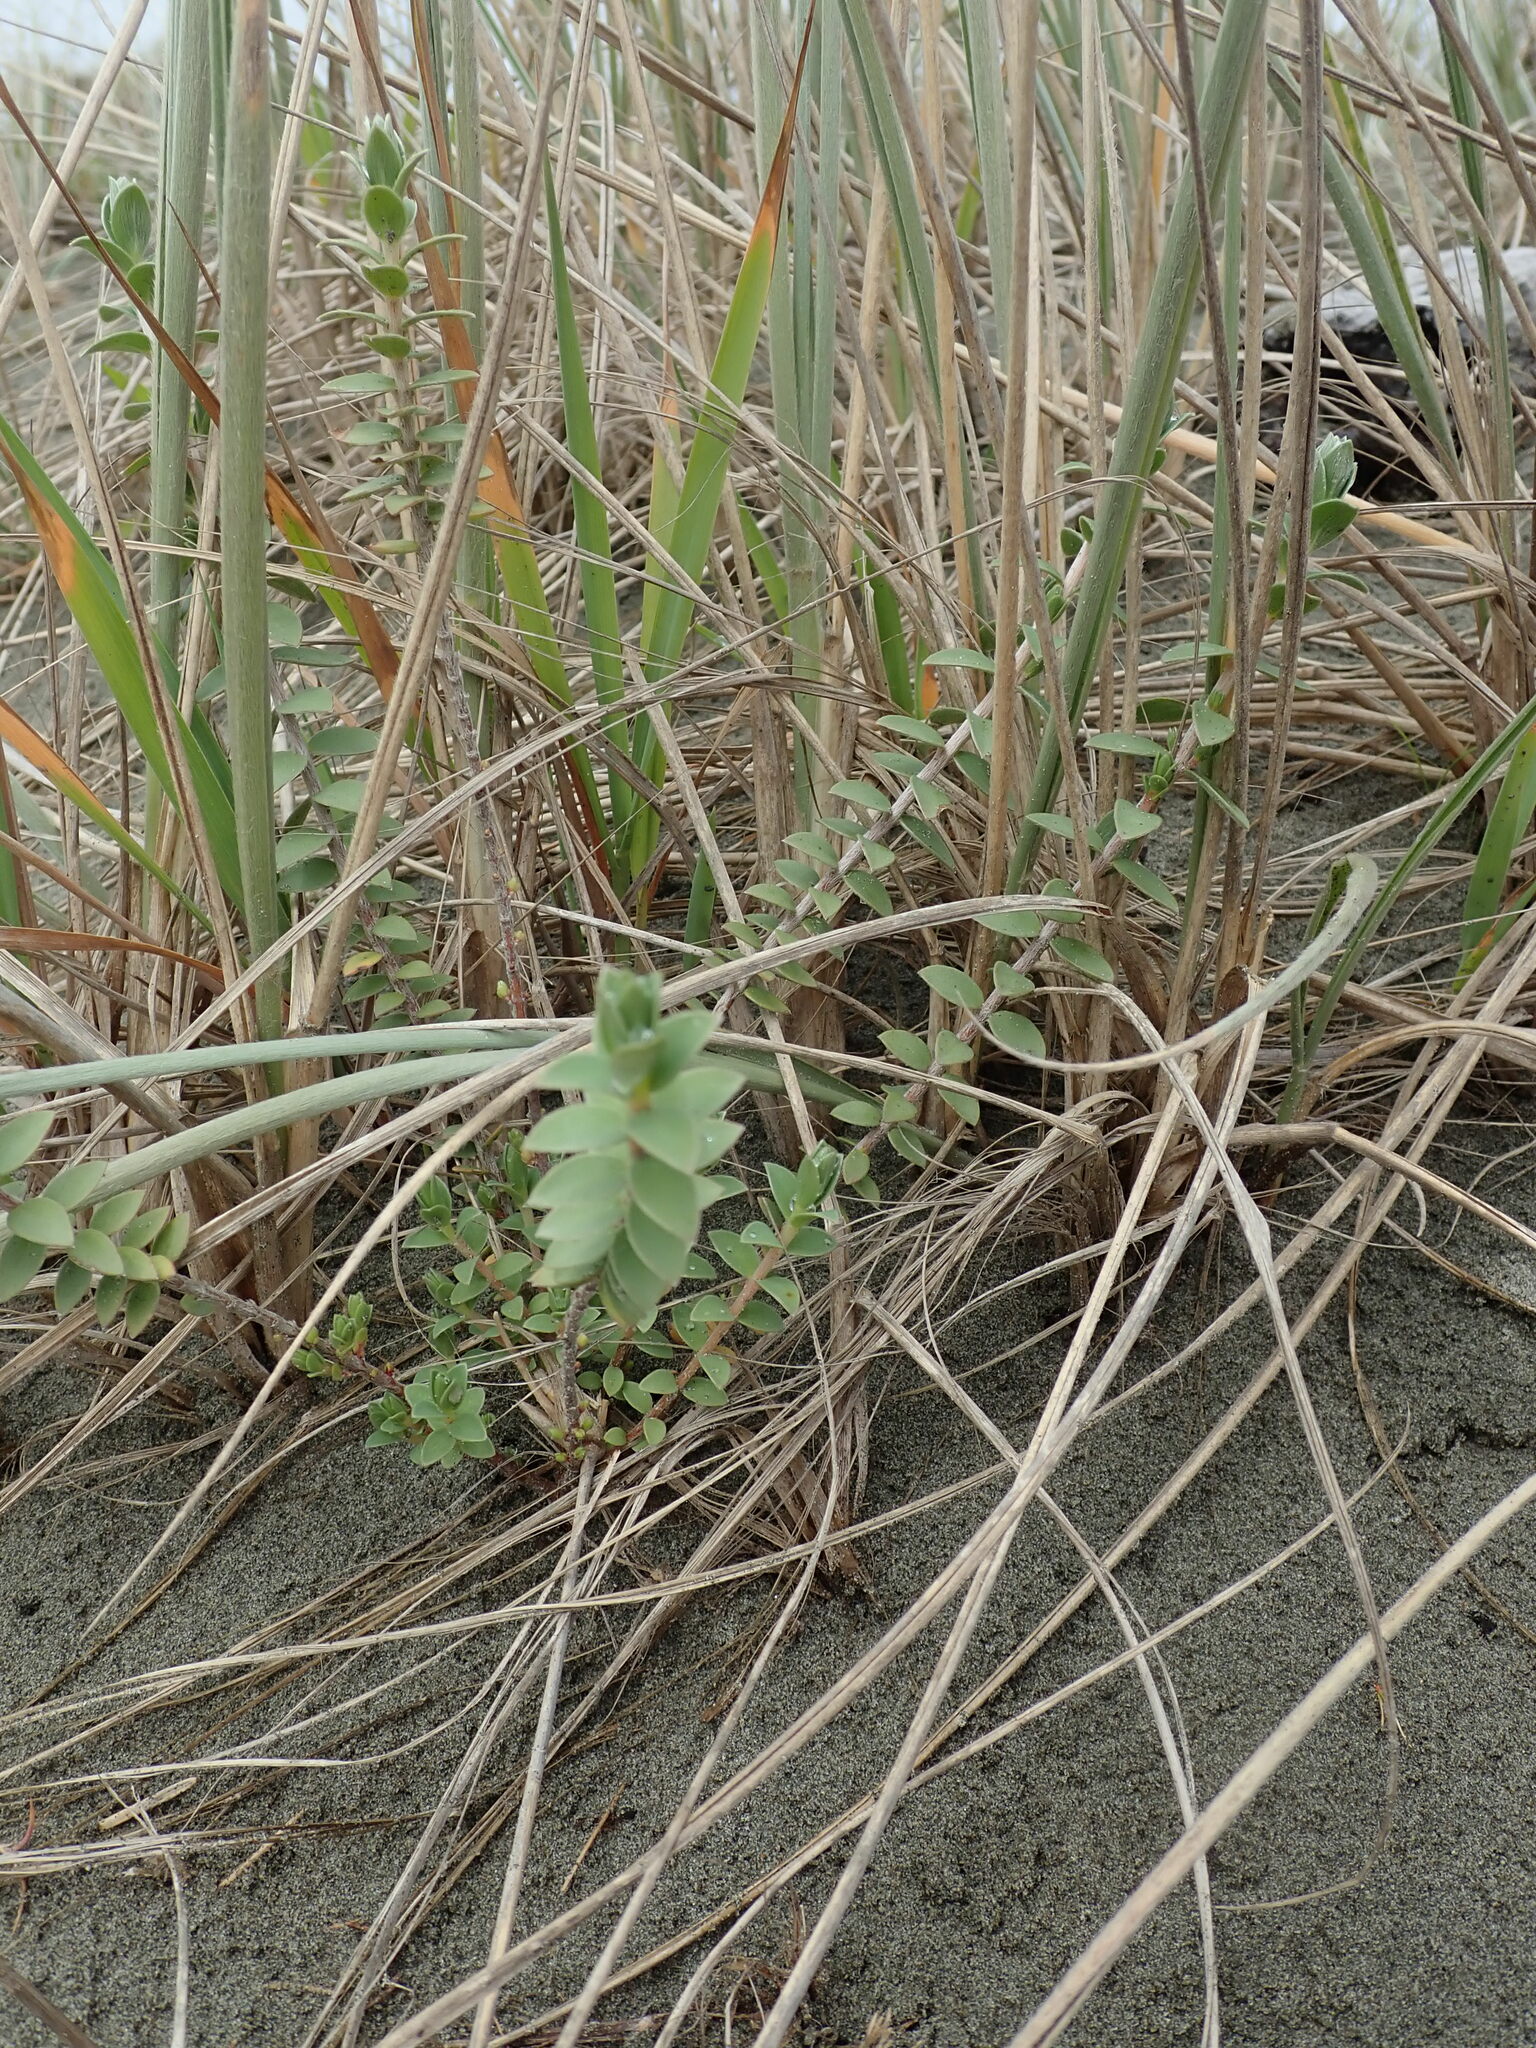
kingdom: Plantae
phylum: Tracheophyta
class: Magnoliopsida
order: Malvales
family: Thymelaeaceae
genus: Pimelea
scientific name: Pimelea villosa
